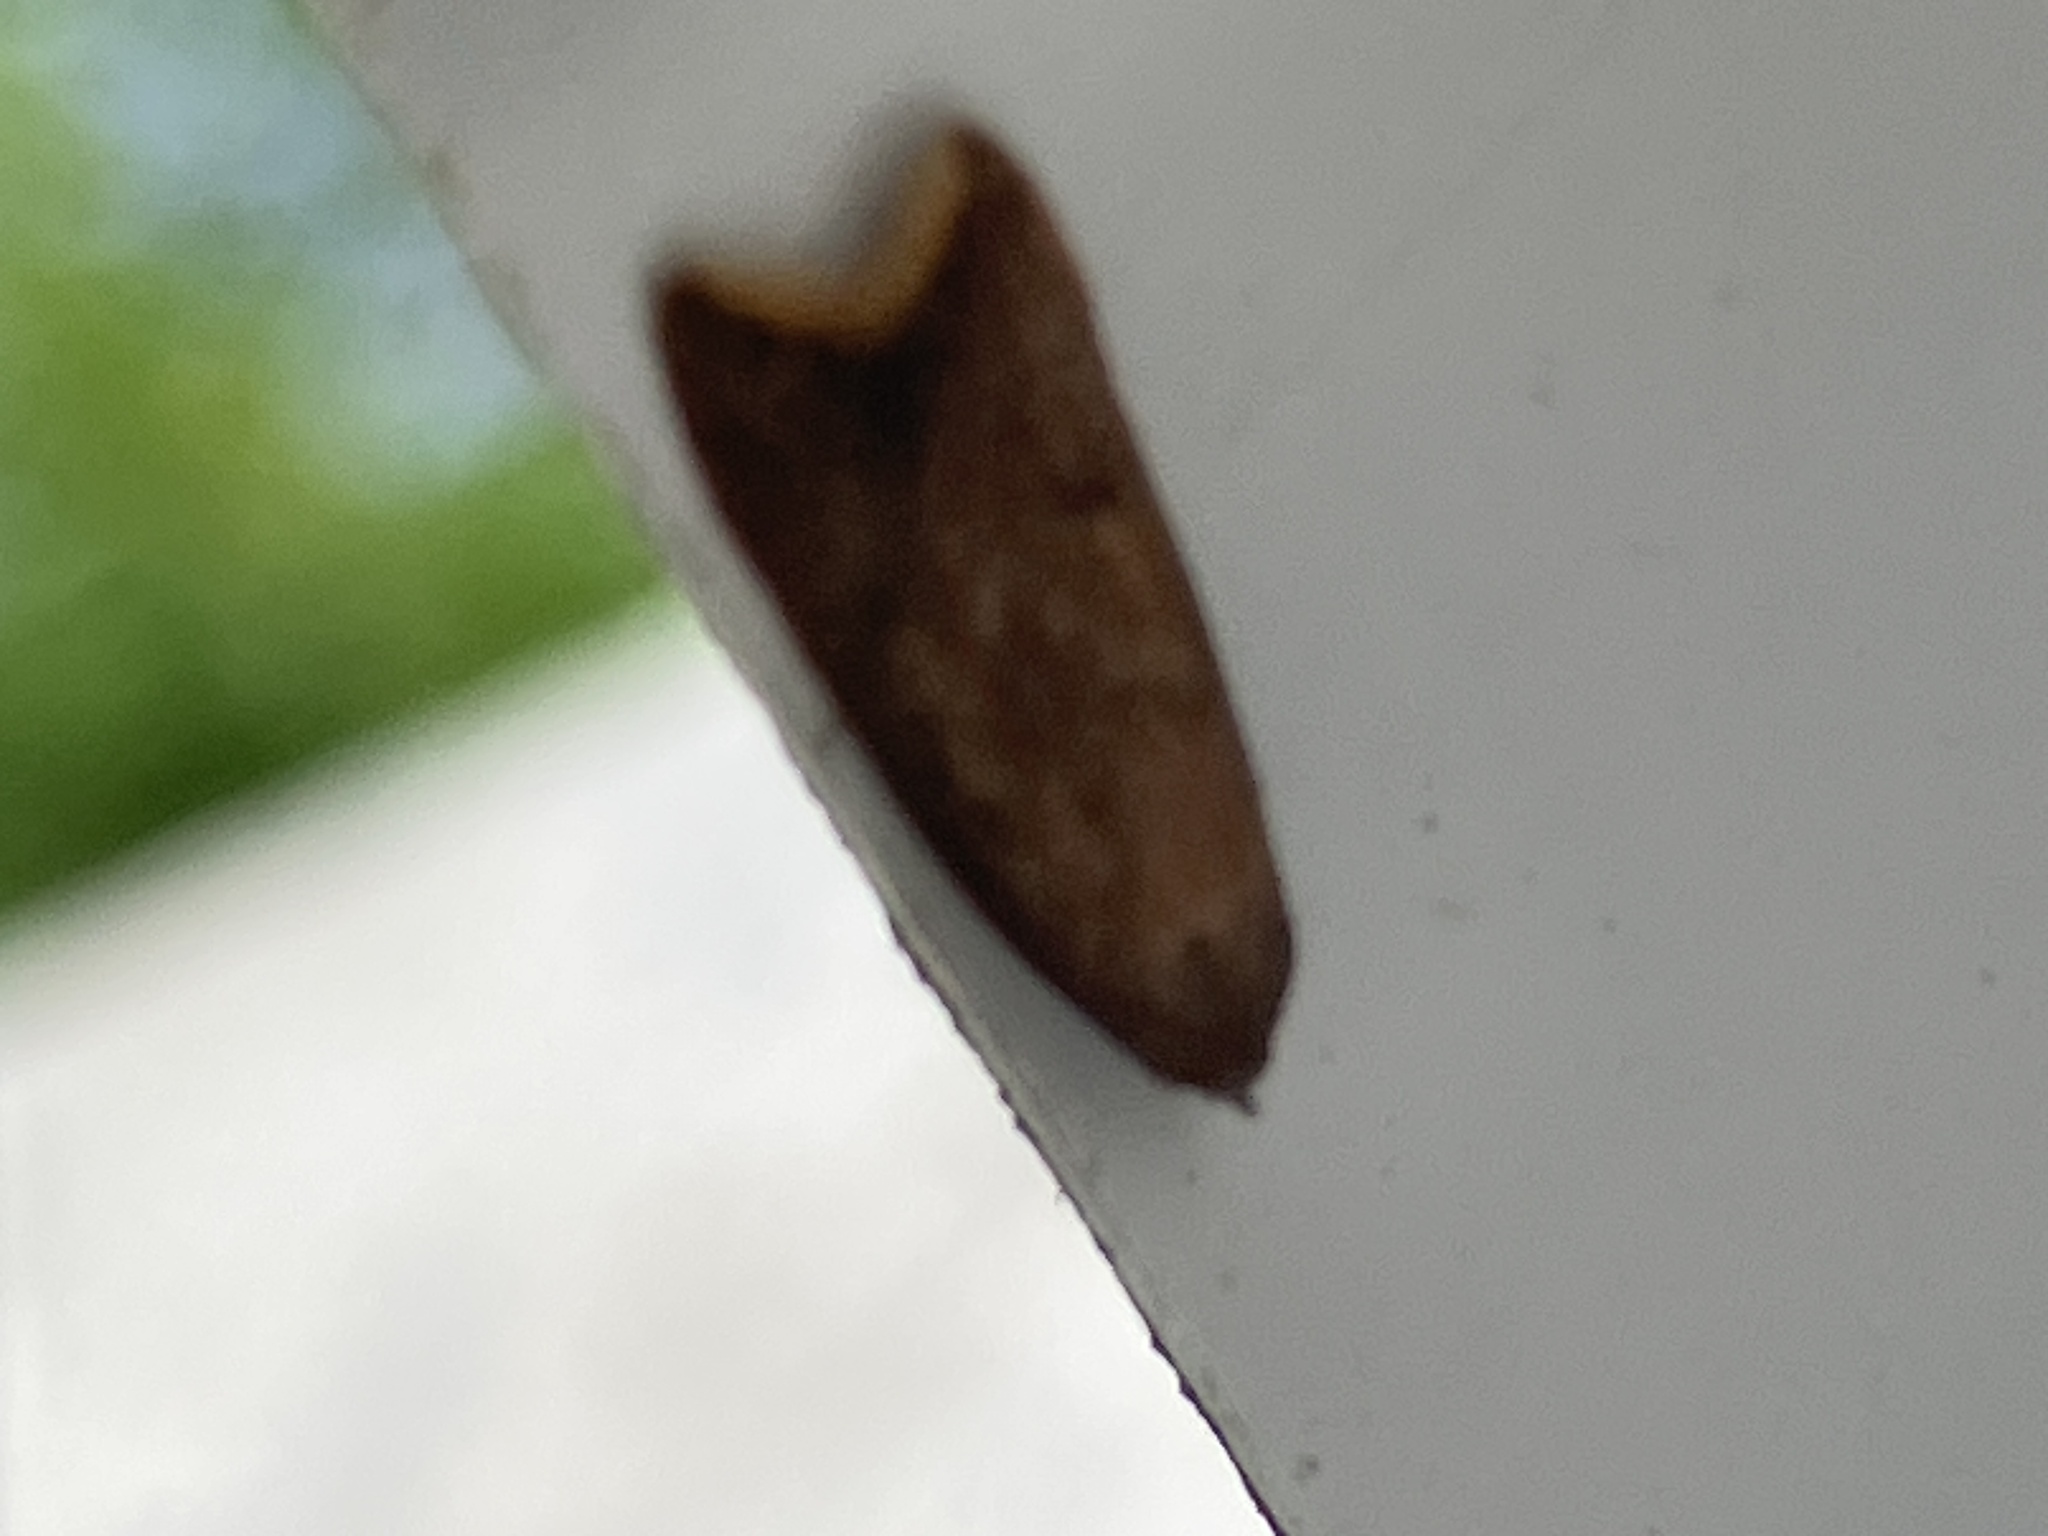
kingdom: Animalia
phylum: Arthropoda
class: Insecta
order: Lepidoptera
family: Oecophoridae
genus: Tachystola
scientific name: Tachystola acroxantha
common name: Ruddy streak
